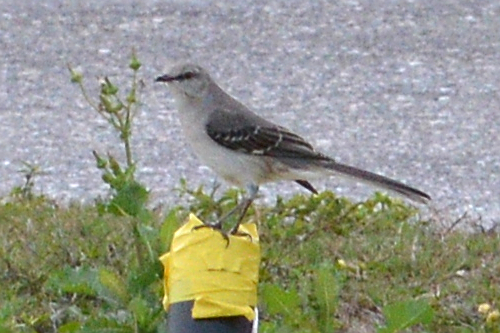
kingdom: Animalia
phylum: Chordata
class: Aves
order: Passeriformes
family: Mimidae
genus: Mimus
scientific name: Mimus polyglottos
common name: Northern mockingbird
